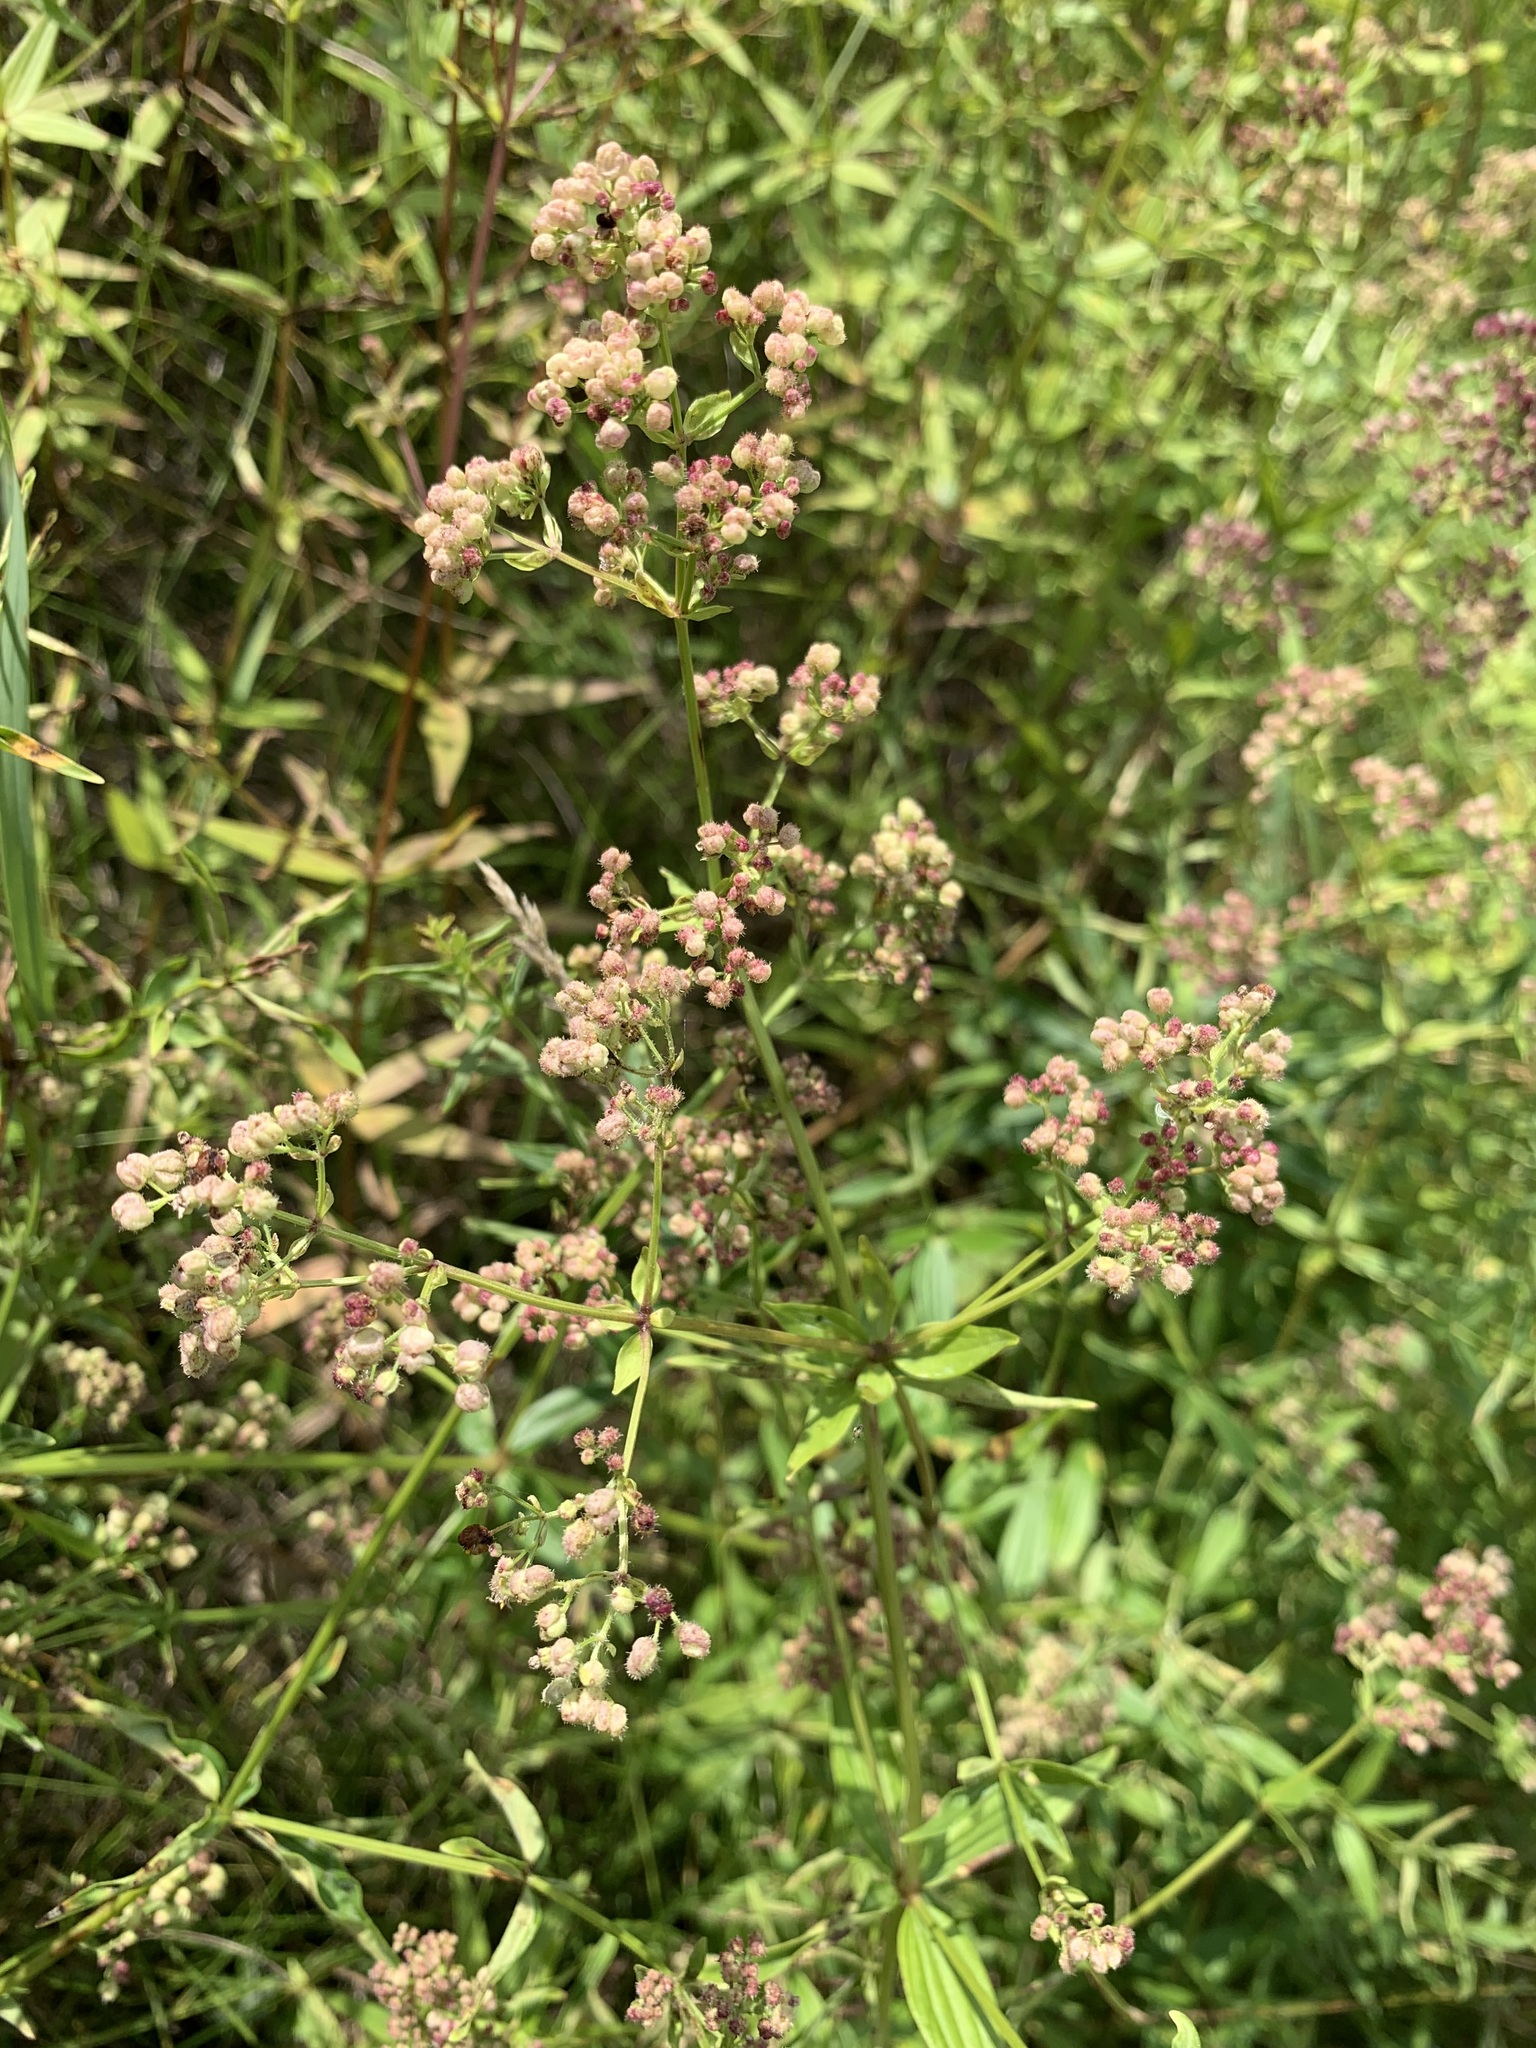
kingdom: Plantae
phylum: Tracheophyta
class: Magnoliopsida
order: Gentianales
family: Rubiaceae
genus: Galium
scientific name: Galium pseudoboreale
